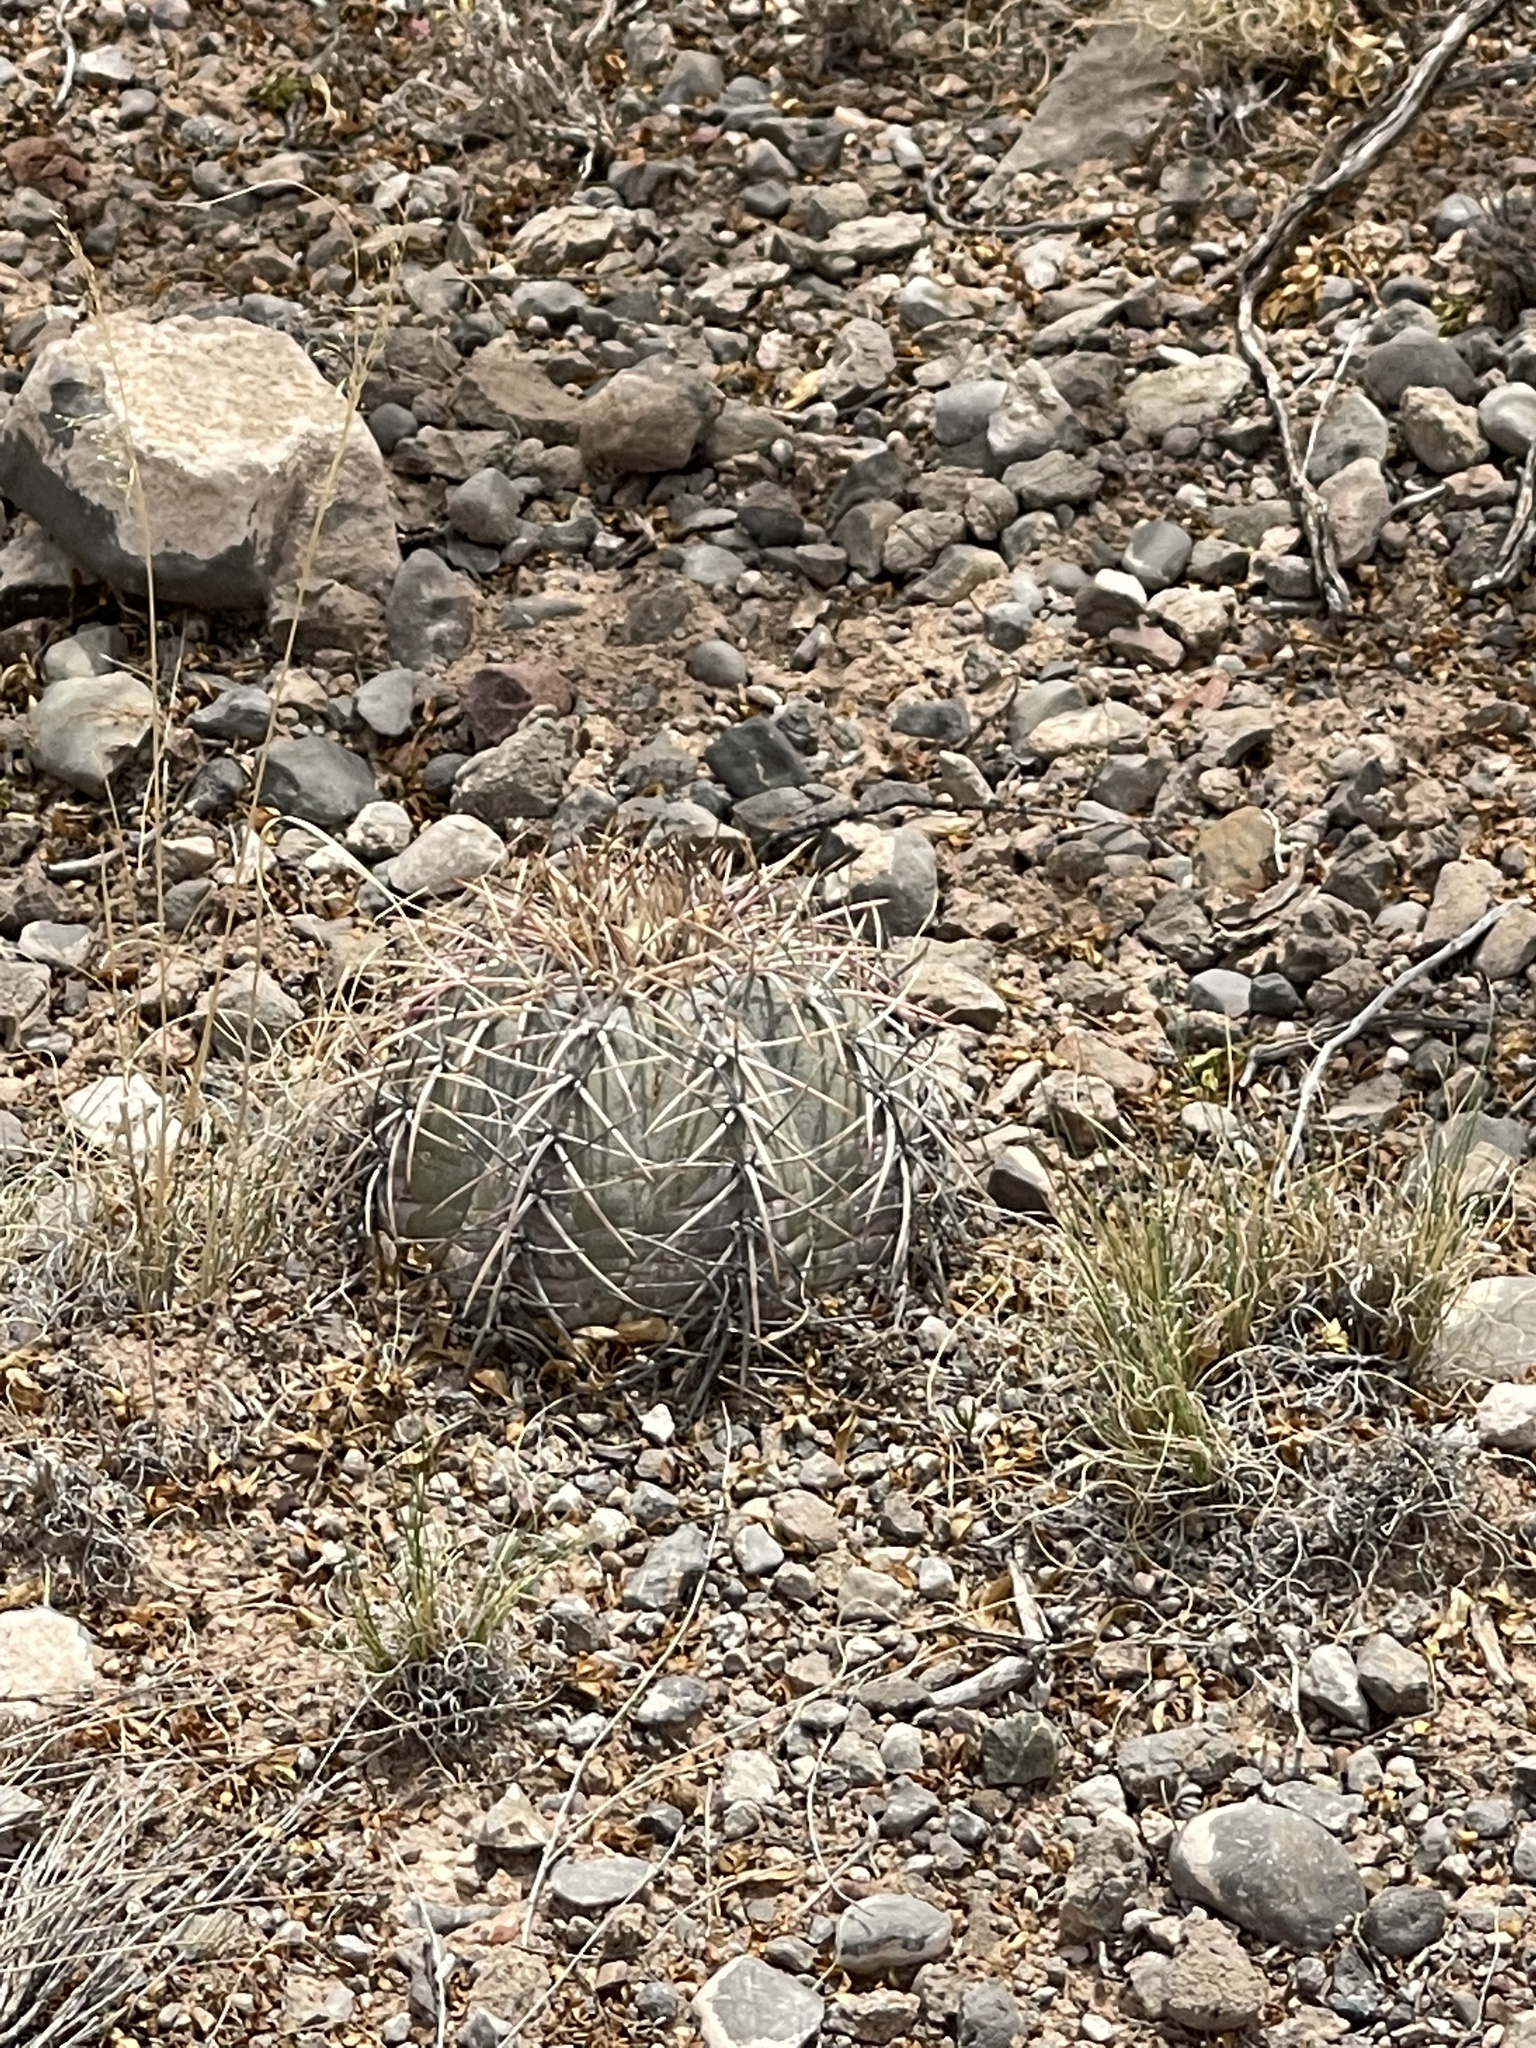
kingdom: Plantae
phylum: Tracheophyta
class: Magnoliopsida
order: Caryophyllales
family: Cactaceae
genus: Echinocactus
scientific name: Echinocactus horizonthalonius
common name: Devilshead
